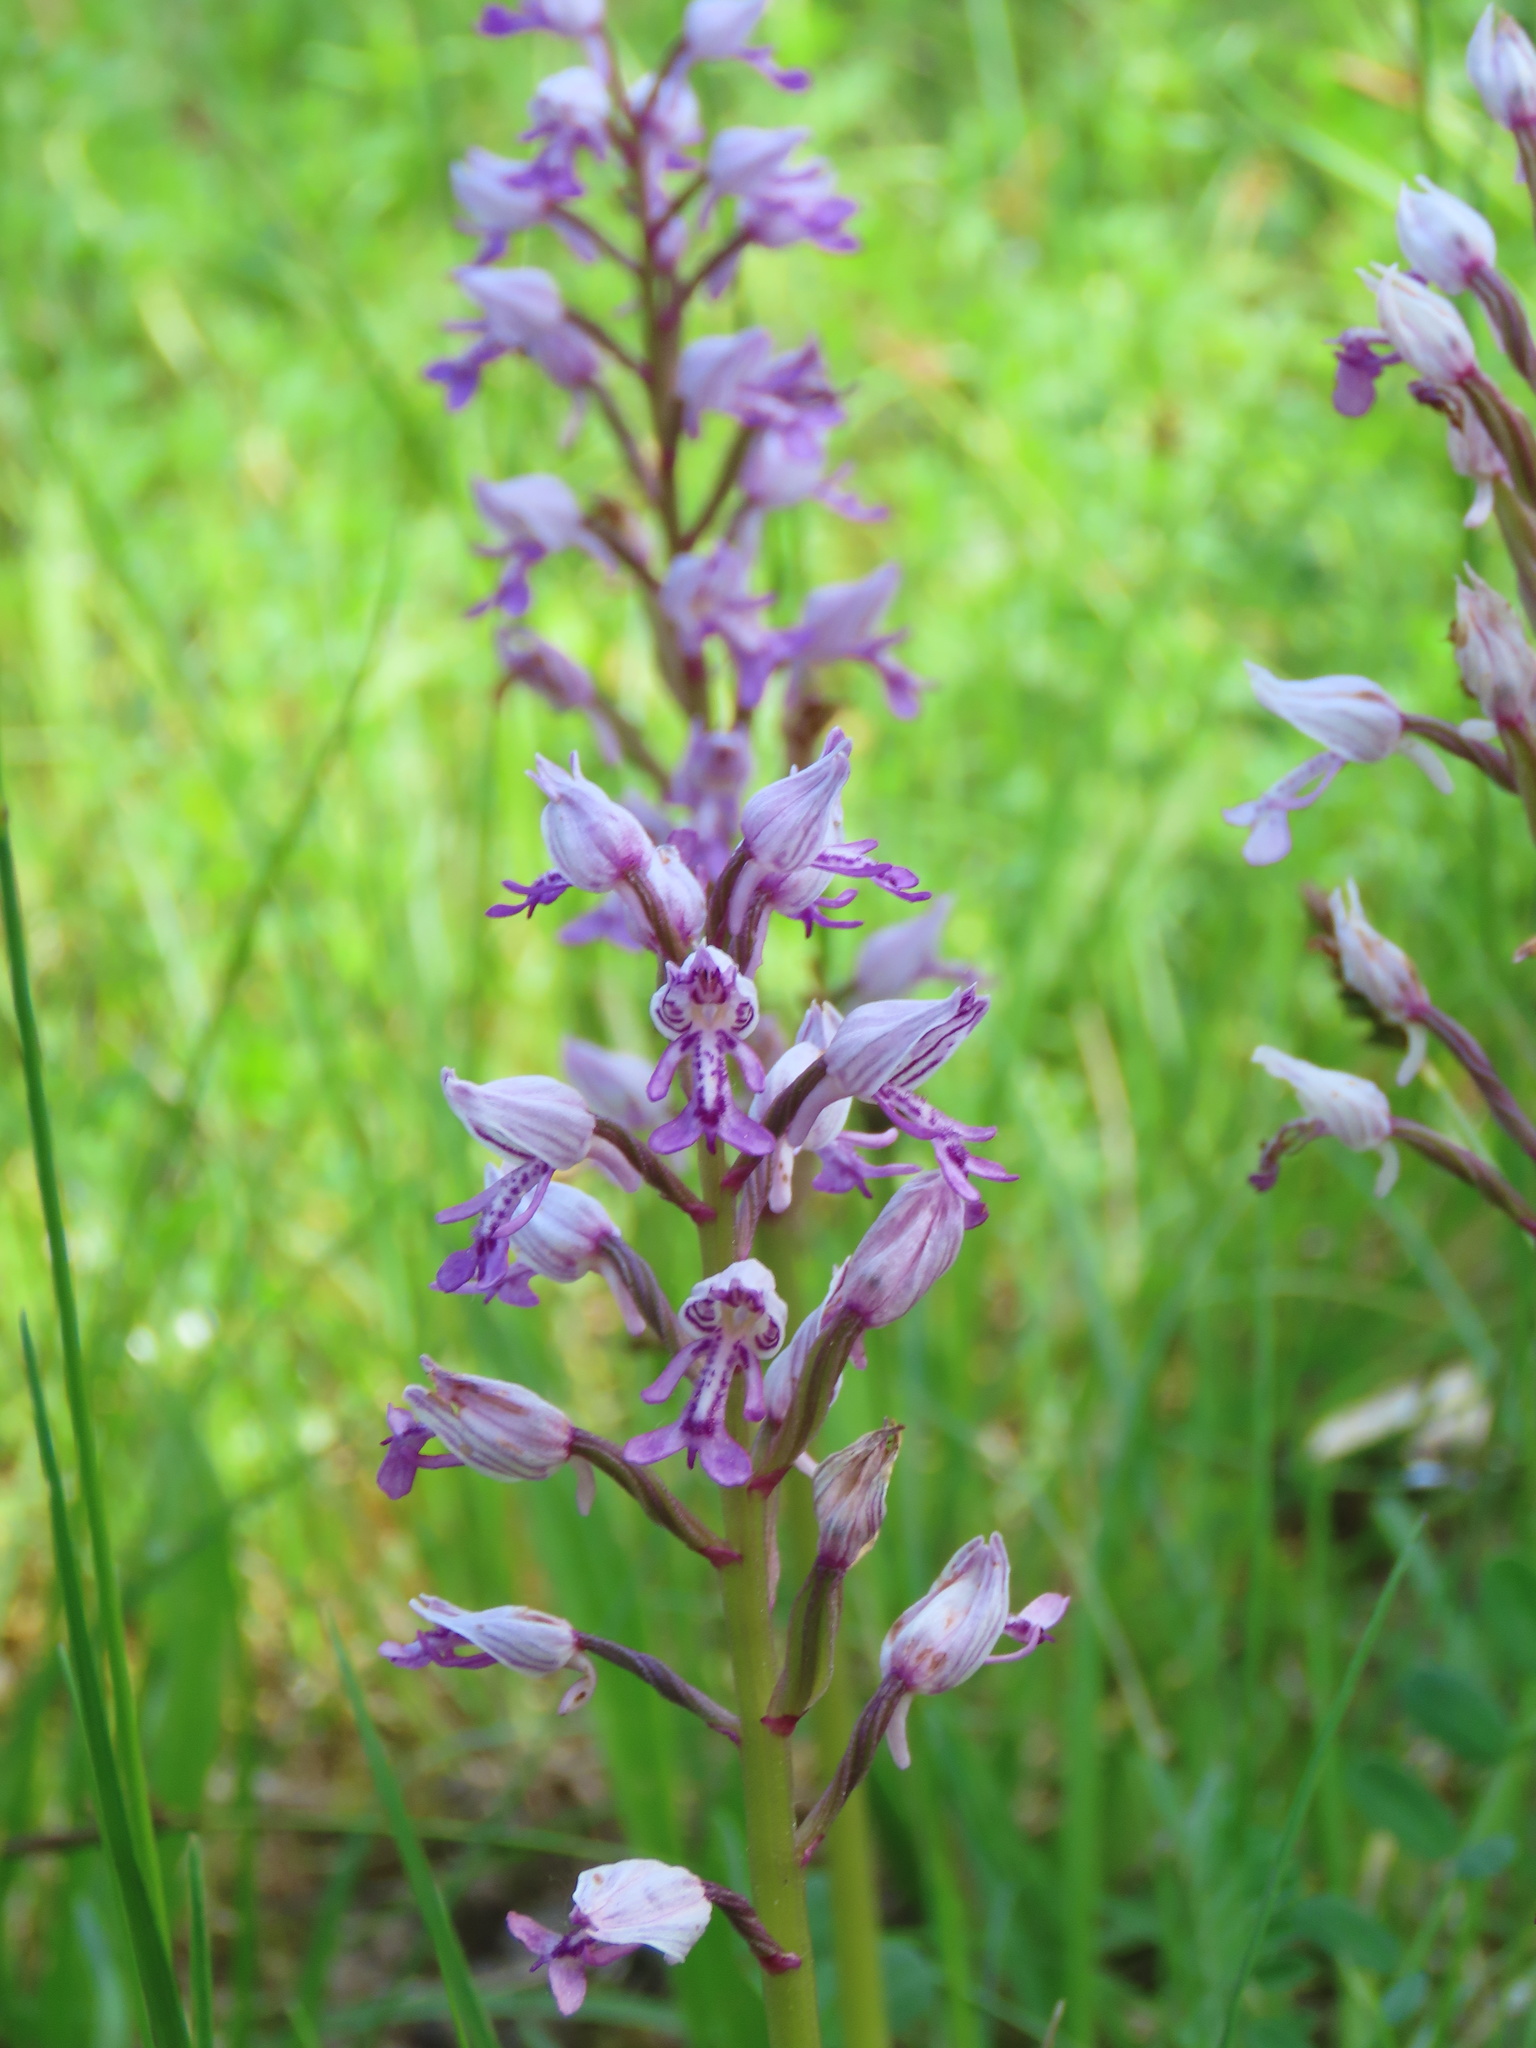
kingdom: Plantae
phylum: Tracheophyta
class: Liliopsida
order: Asparagales
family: Orchidaceae
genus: Orchis
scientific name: Orchis militaris
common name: Military orchid
